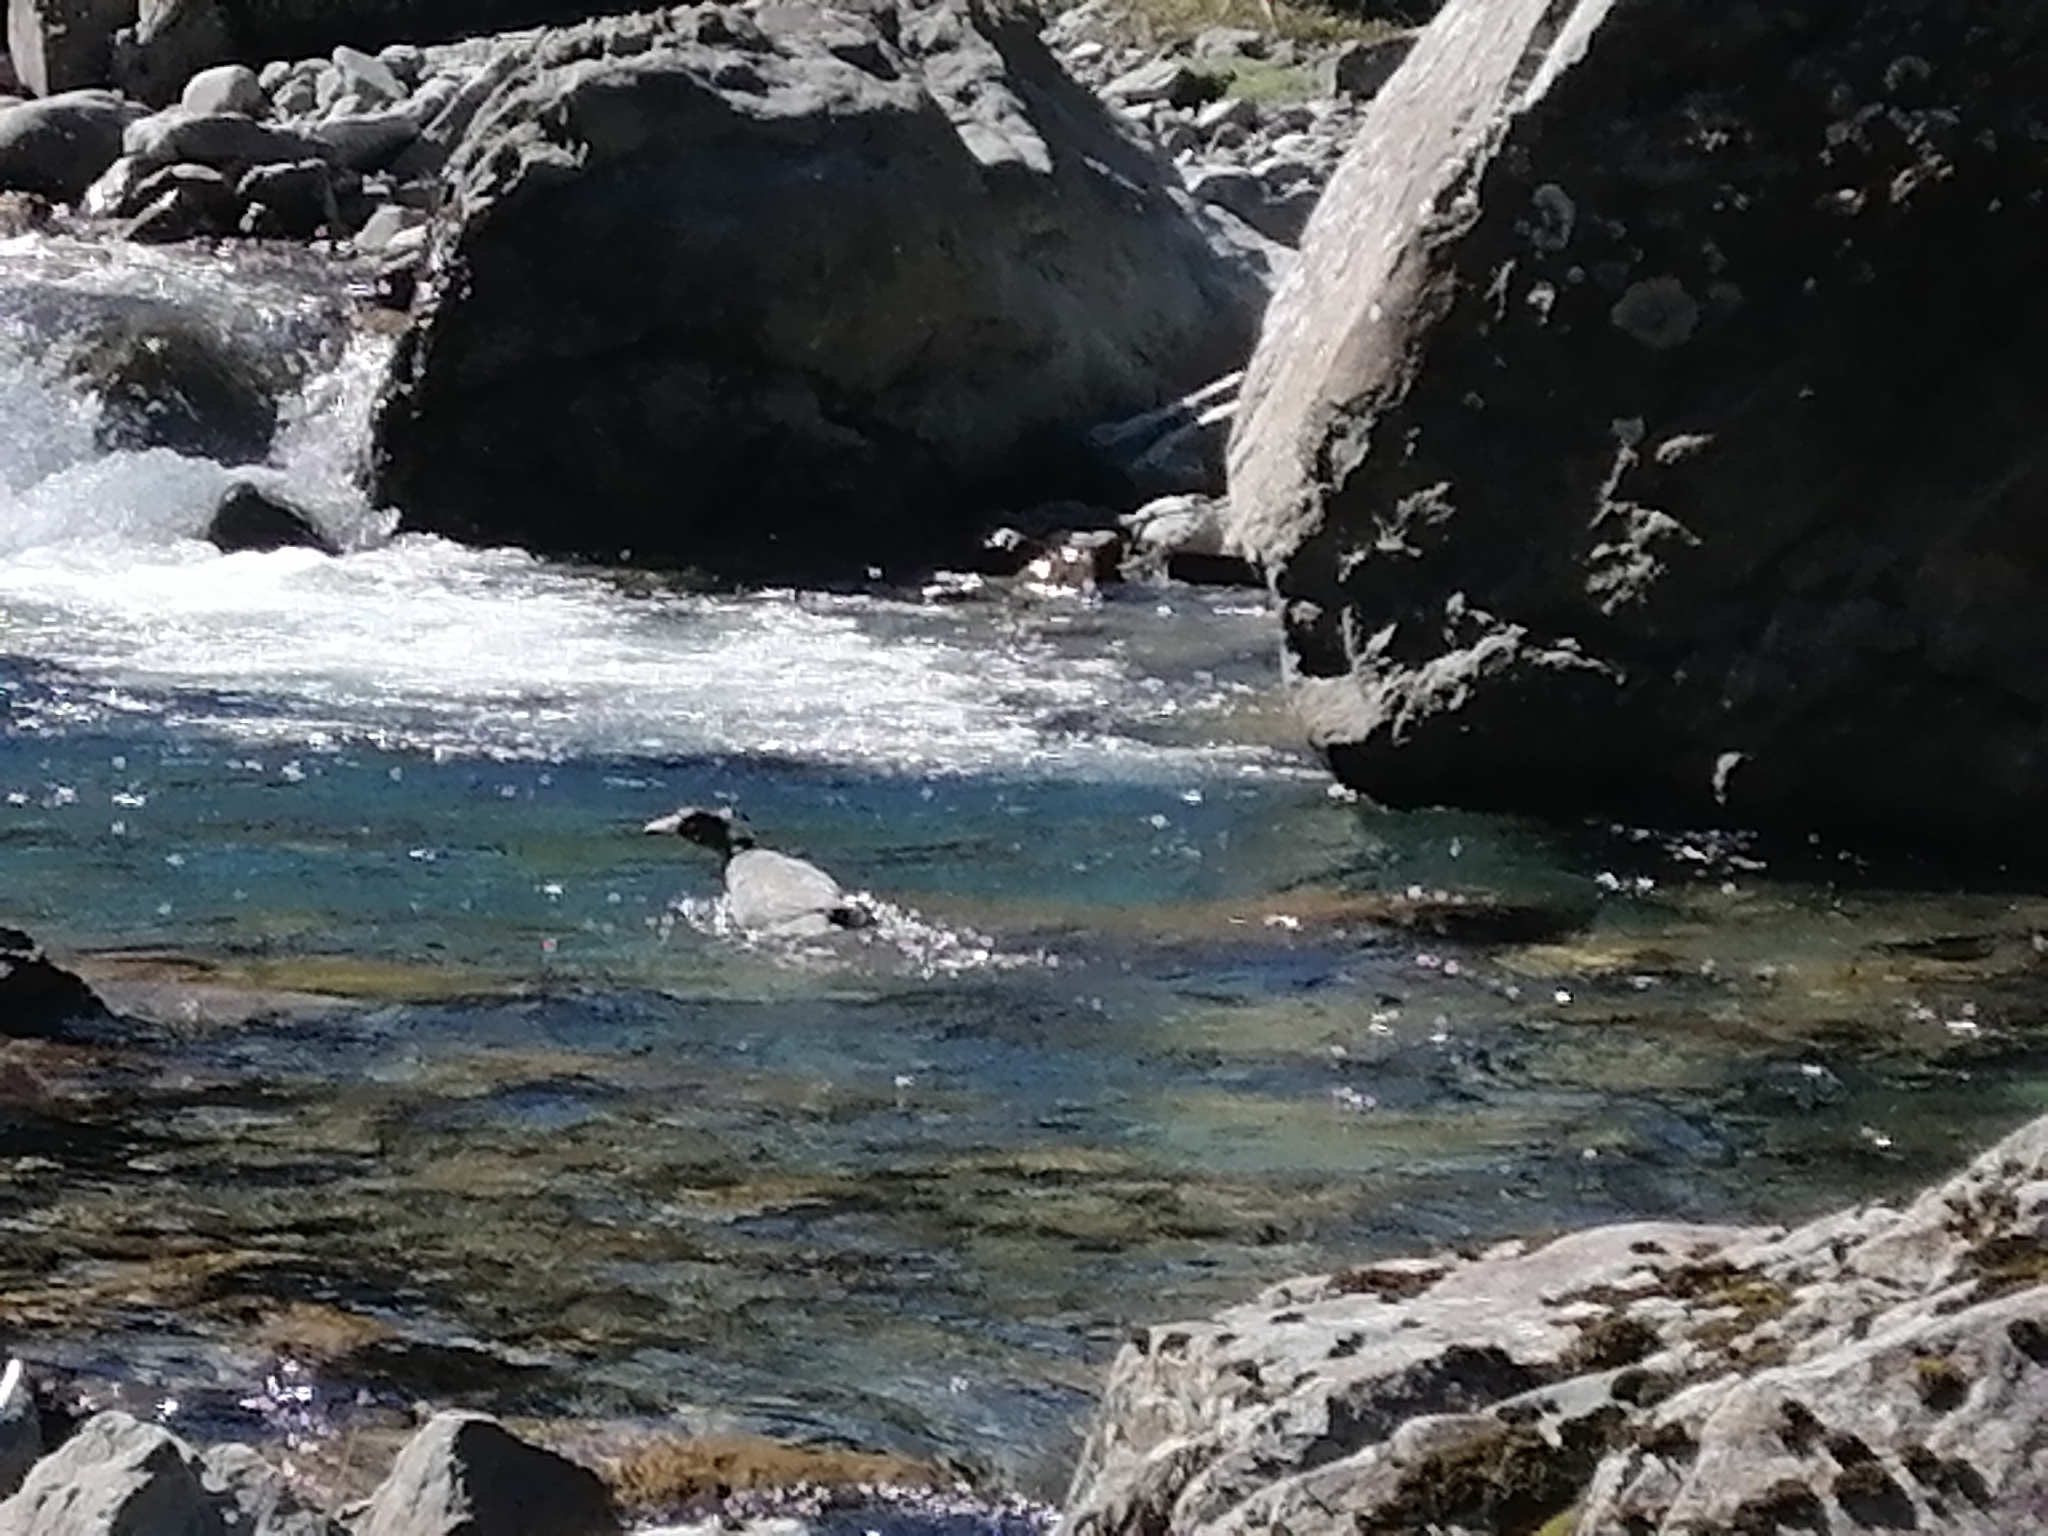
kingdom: Animalia
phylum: Chordata
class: Aves
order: Anseriformes
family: Anatidae
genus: Hymenolaimus
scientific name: Hymenolaimus malacorhynchos
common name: Blue duck
